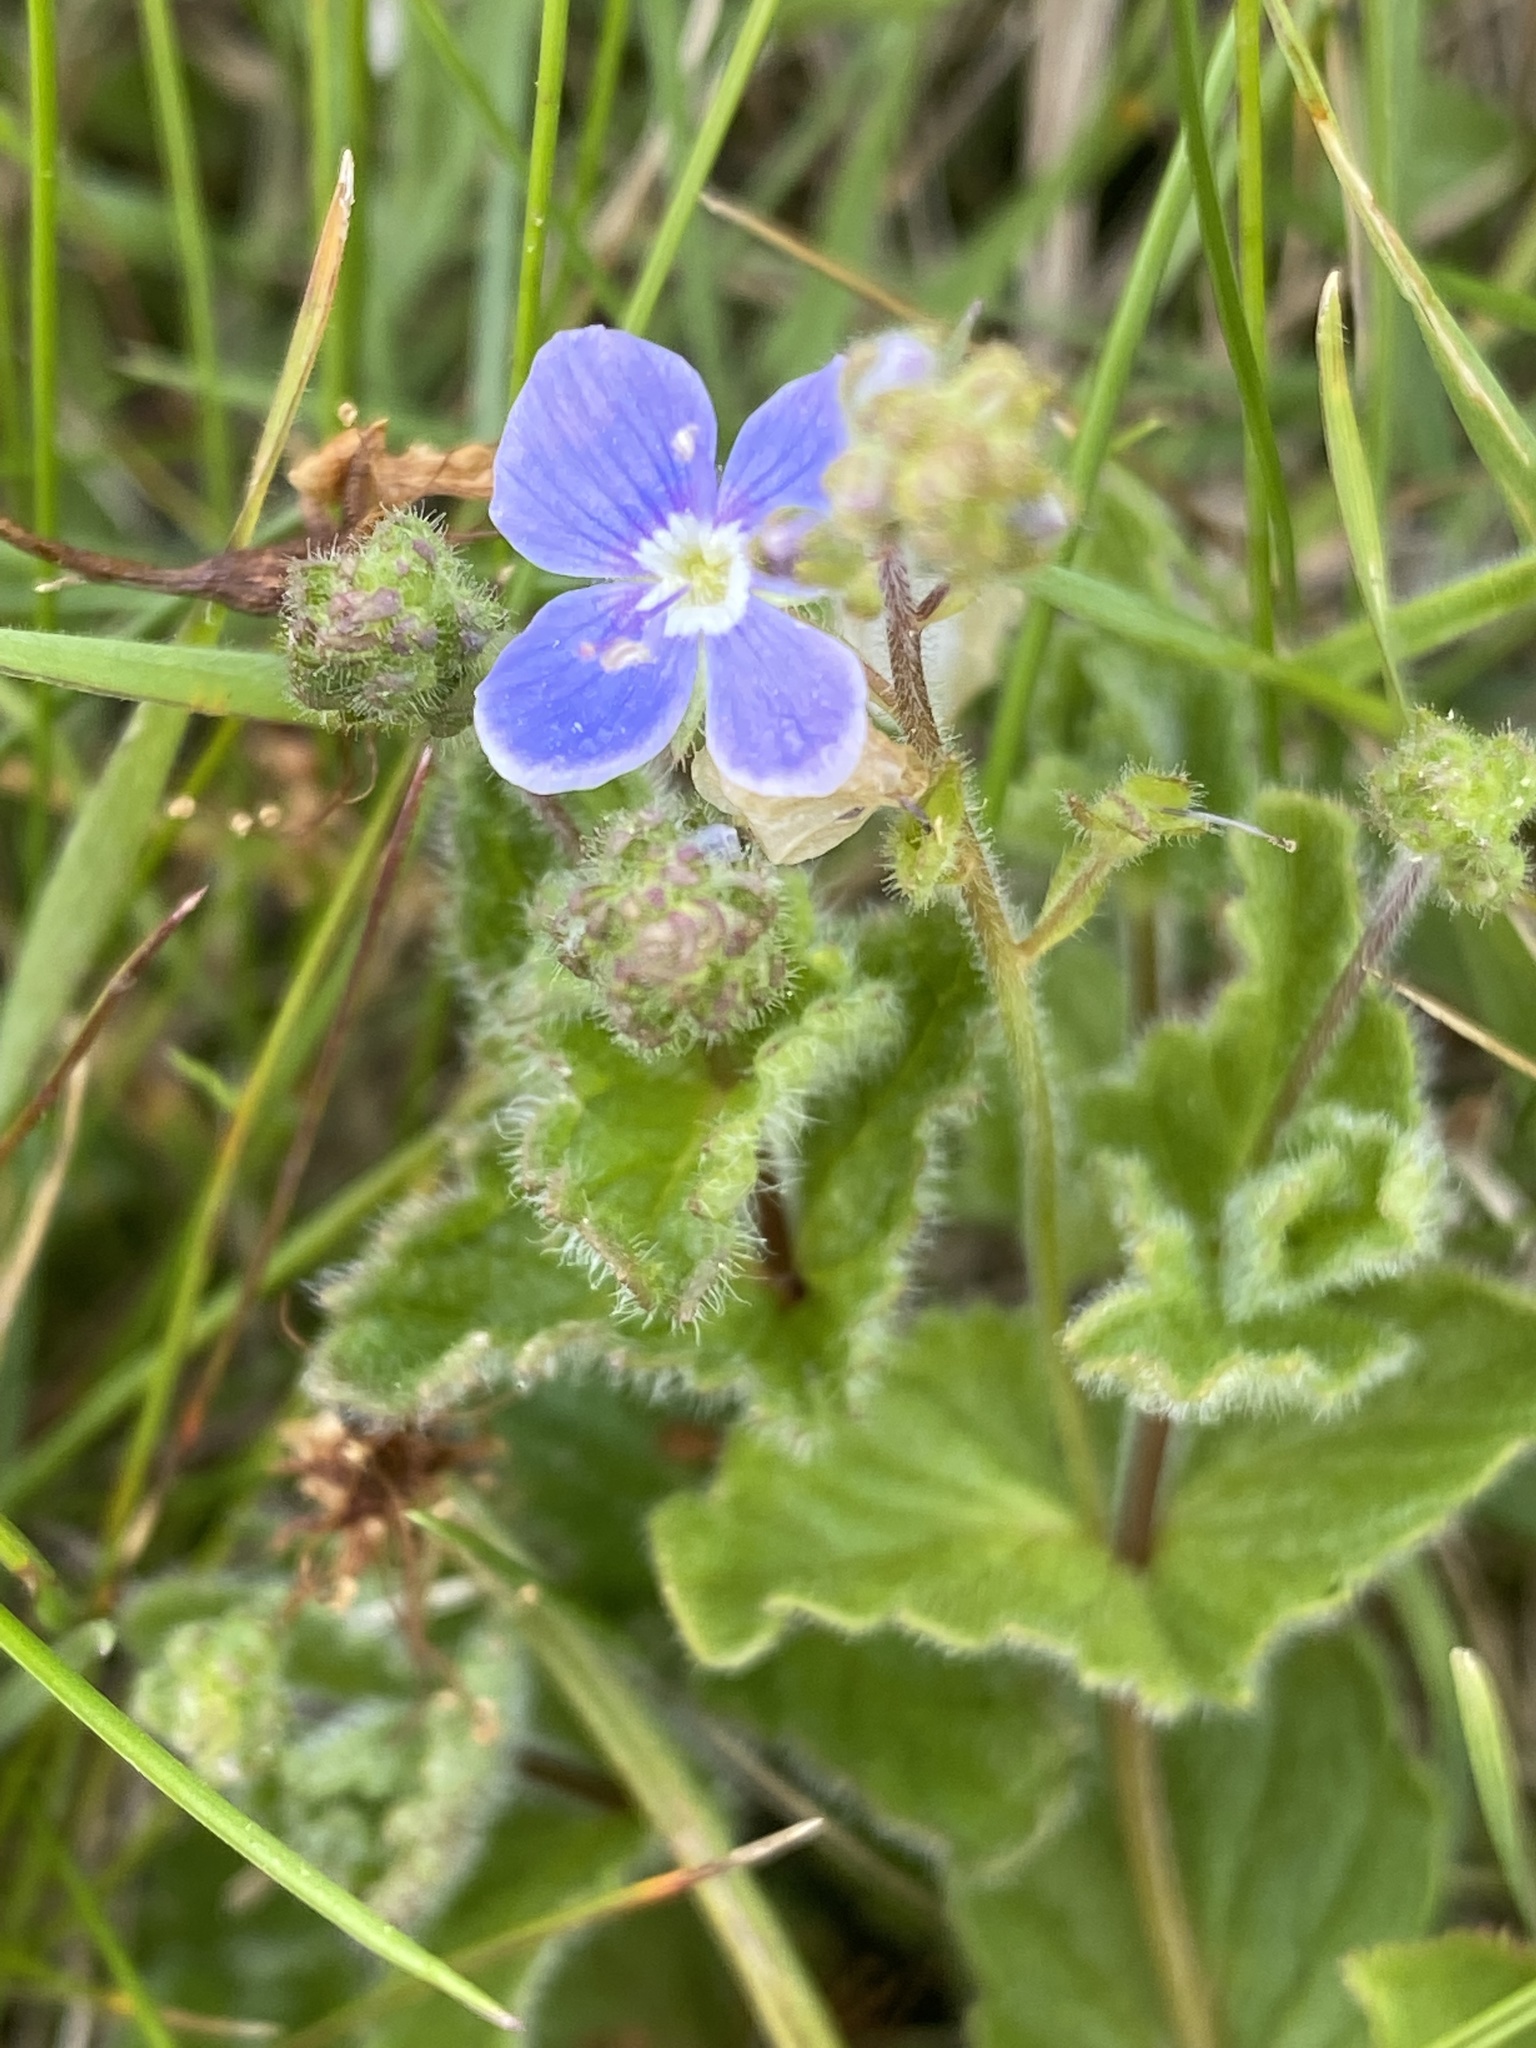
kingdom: Plantae
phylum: Tracheophyta
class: Magnoliopsida
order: Lamiales
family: Plantaginaceae
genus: Veronica
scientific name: Veronica chamaedrys
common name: Germander speedwell
